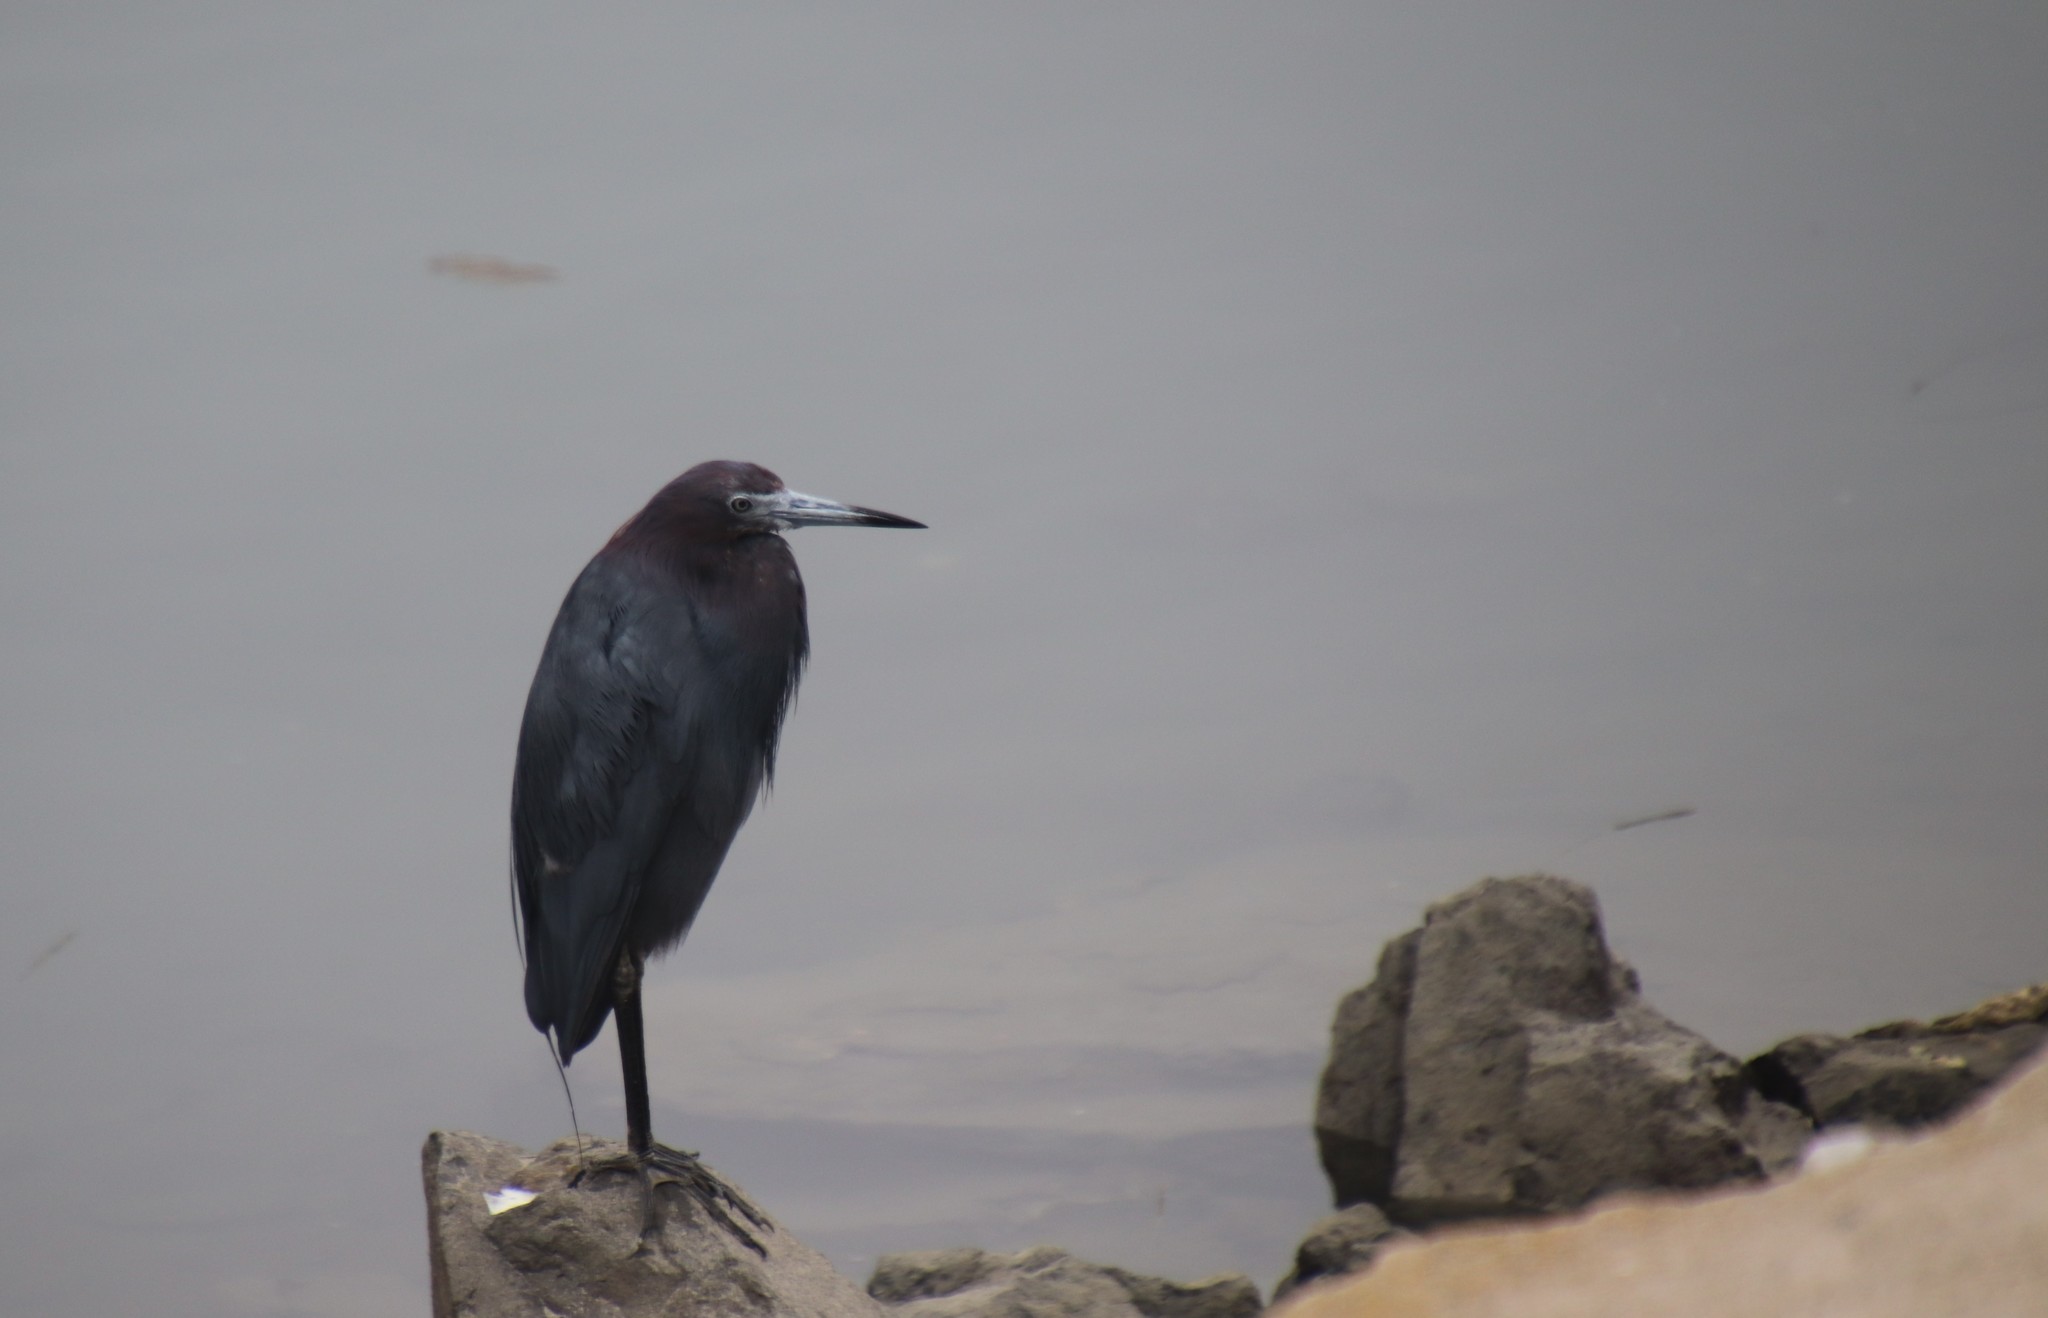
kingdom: Animalia
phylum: Chordata
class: Aves
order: Pelecaniformes
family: Ardeidae
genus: Egretta
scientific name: Egretta caerulea
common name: Little blue heron
